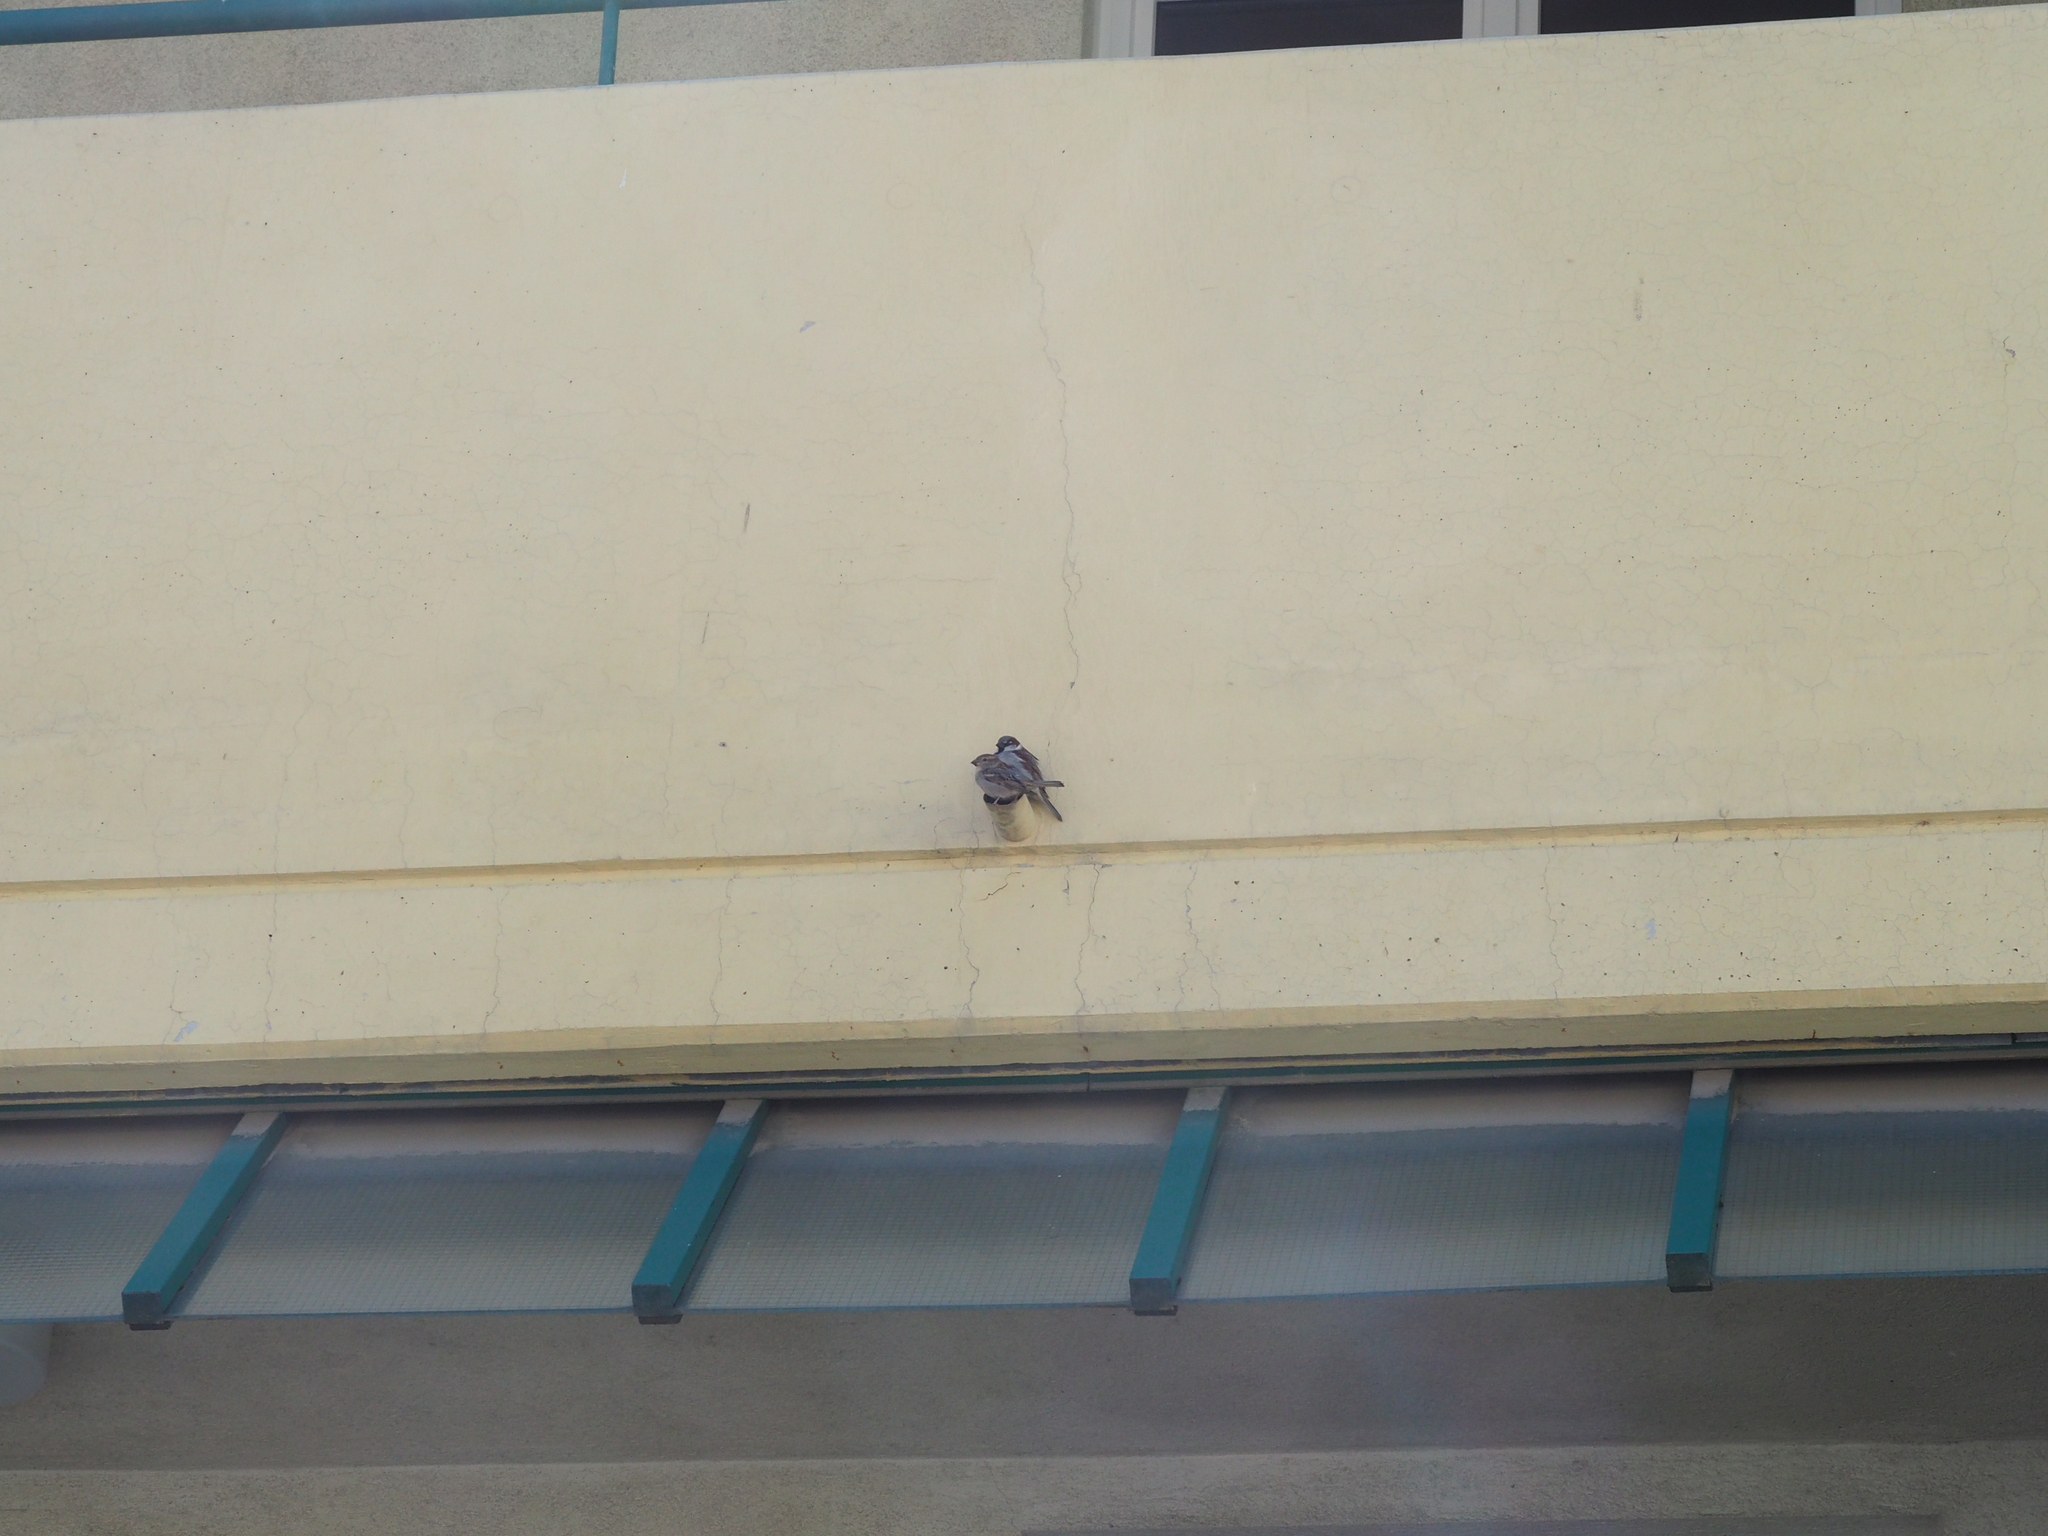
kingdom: Animalia
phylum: Chordata
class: Aves
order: Passeriformes
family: Passeridae
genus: Passer
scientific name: Passer domesticus
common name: House sparrow
